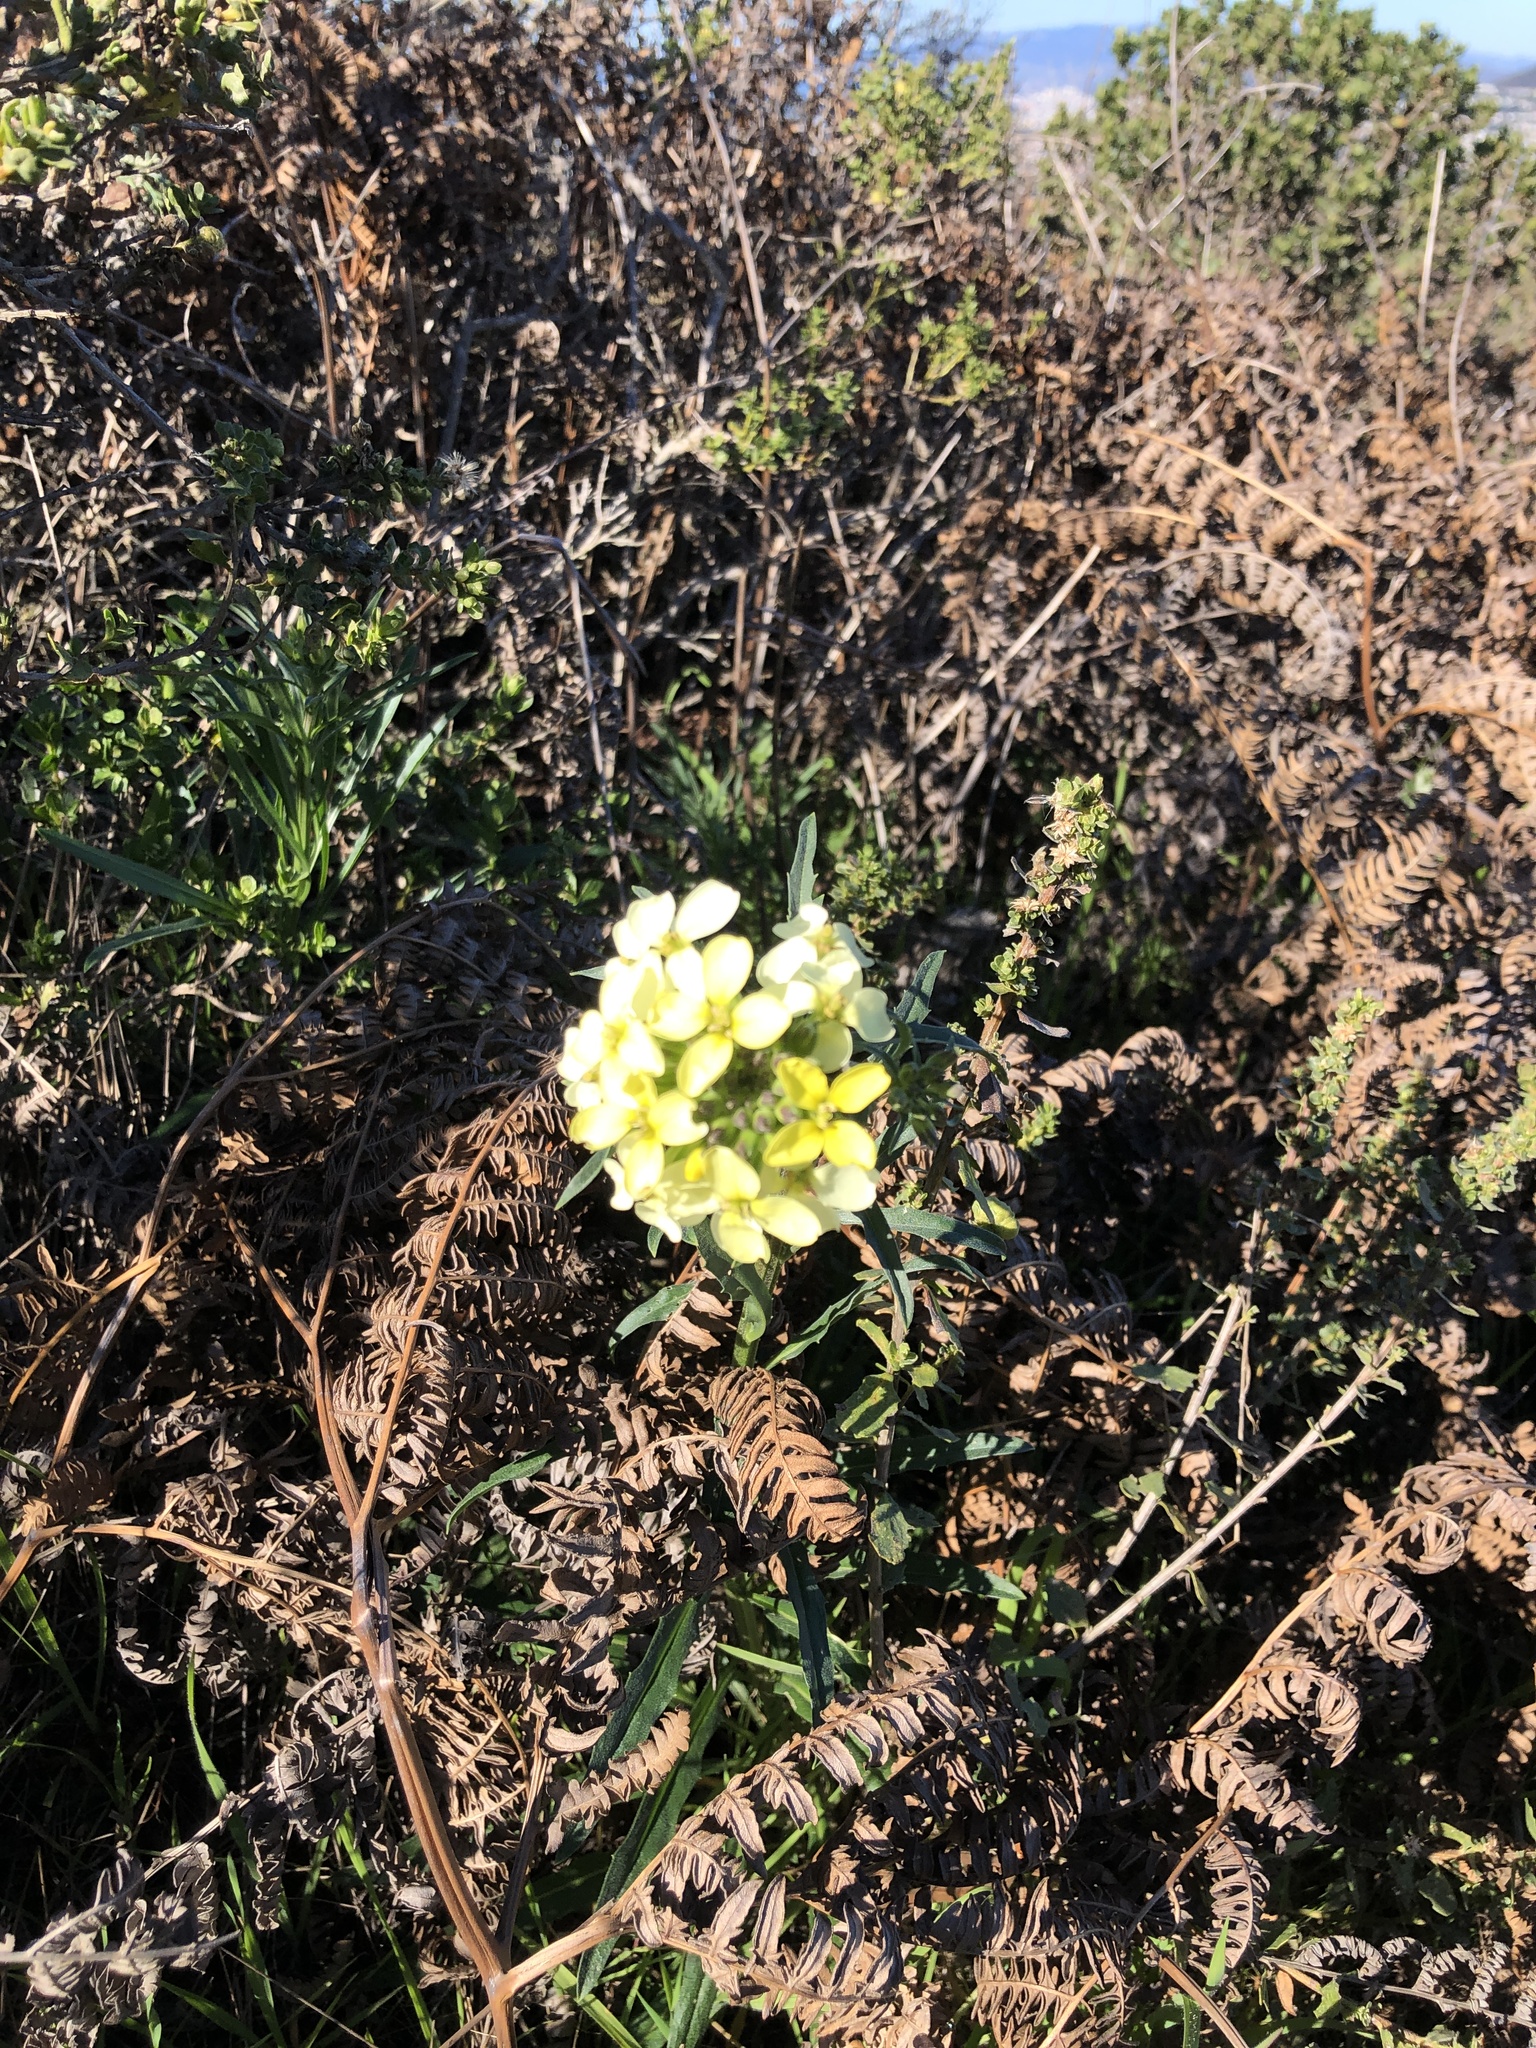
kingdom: Plantae
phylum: Tracheophyta
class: Magnoliopsida
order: Brassicales
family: Brassicaceae
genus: Erysimum
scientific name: Erysimum franciscanum
